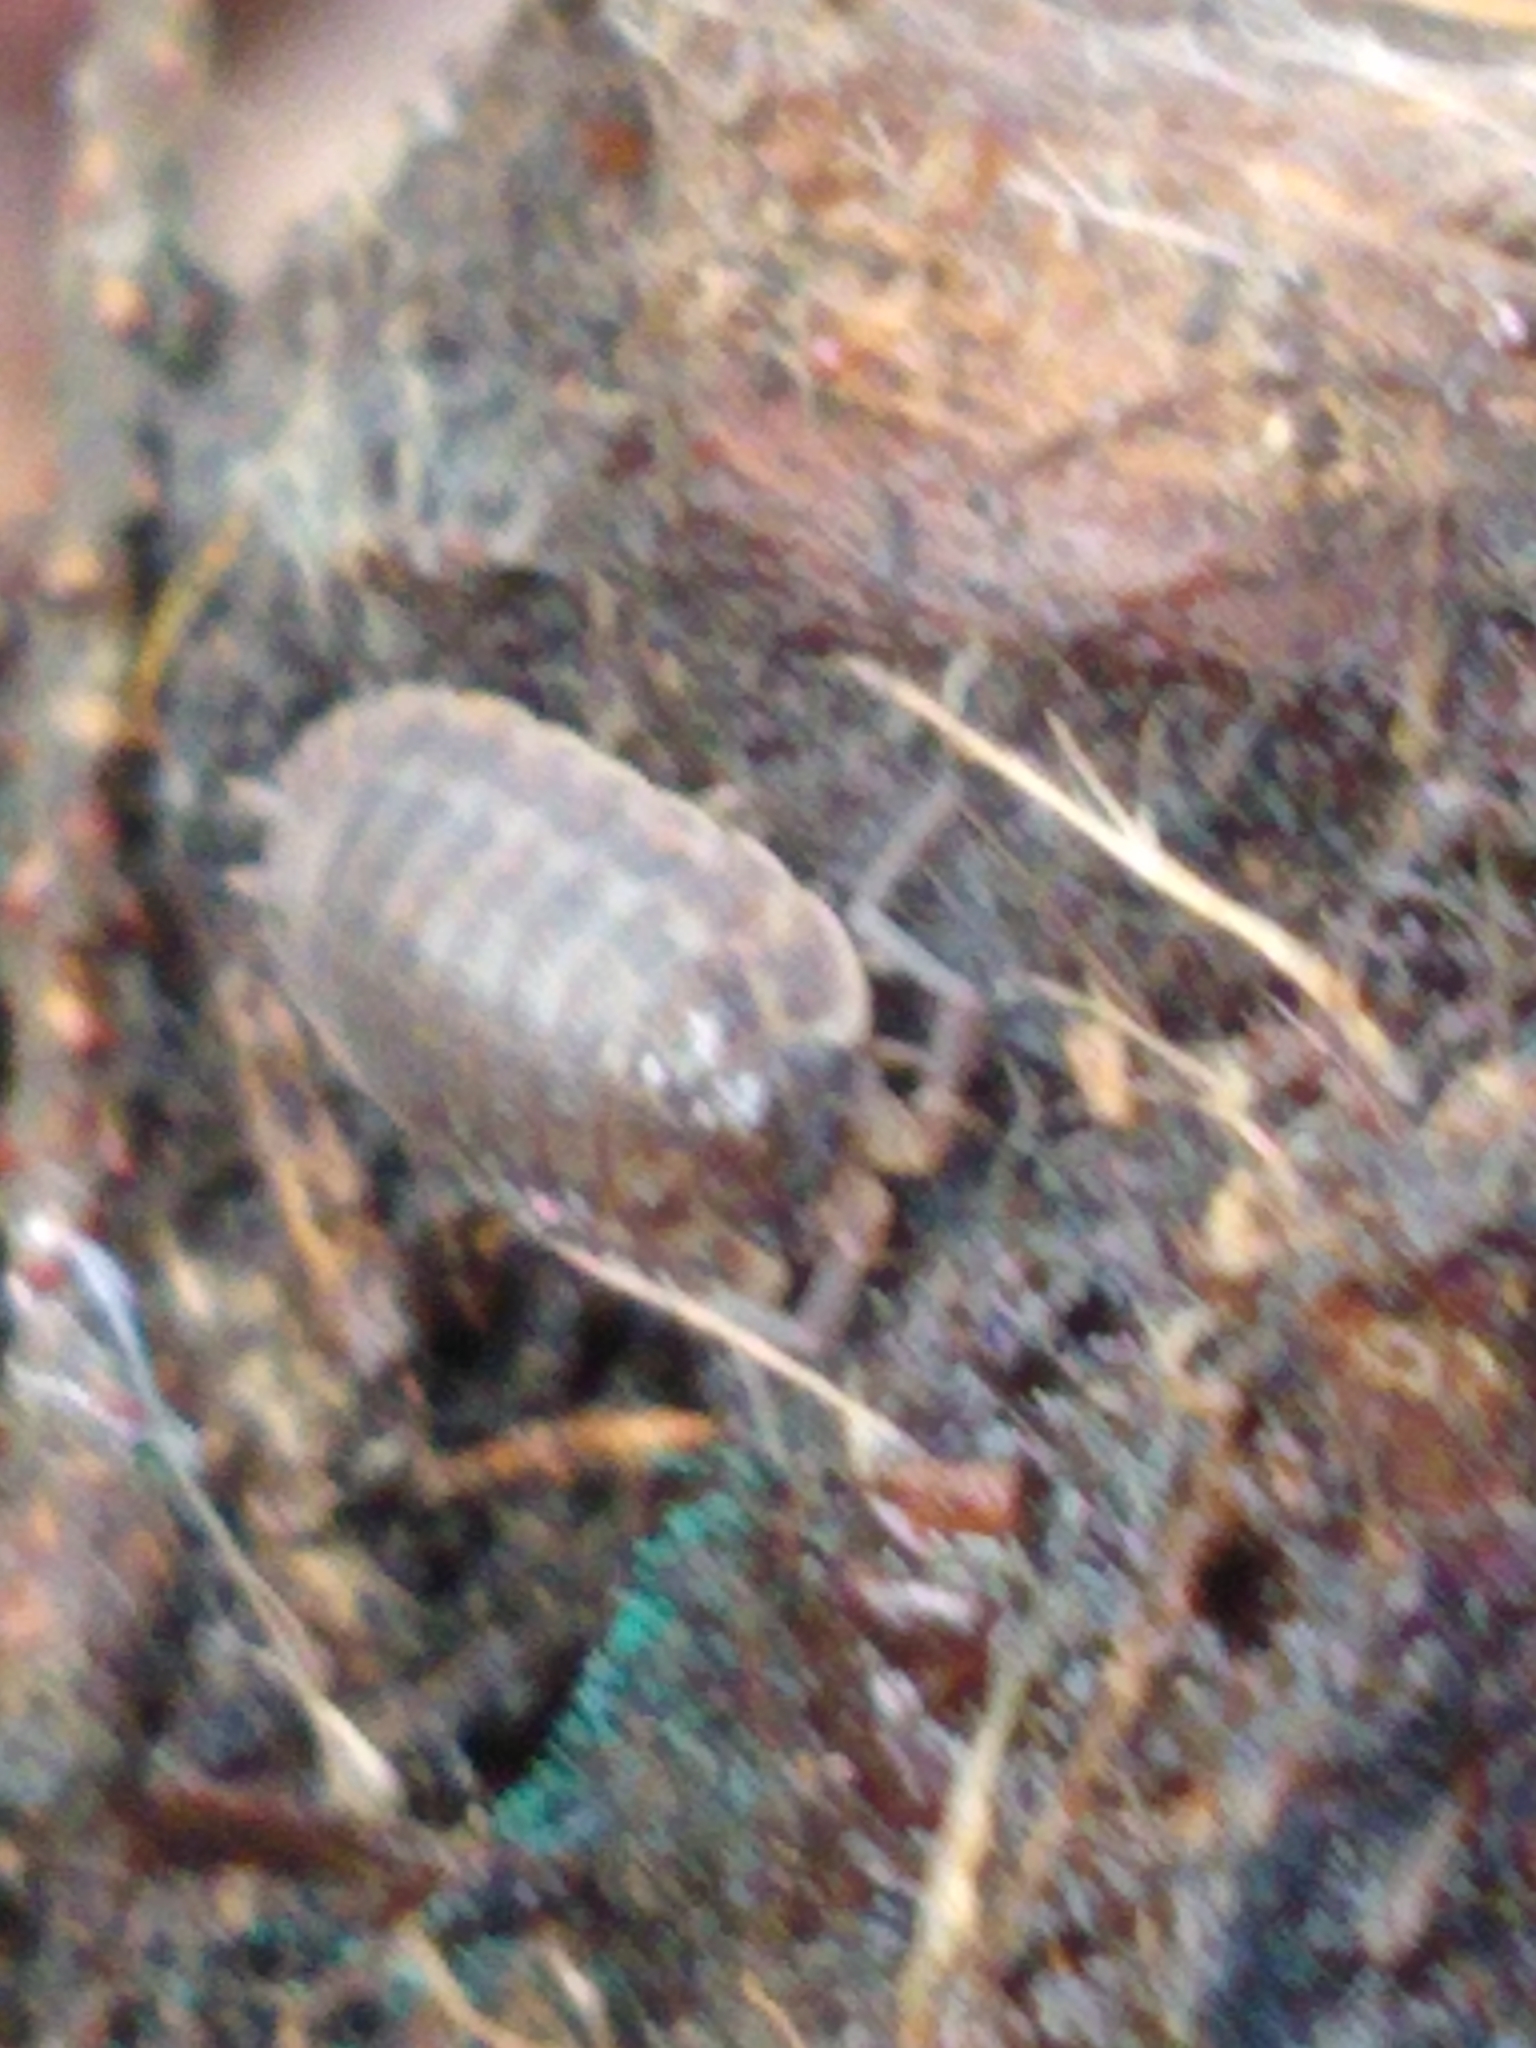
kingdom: Animalia
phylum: Arthropoda
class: Malacostraca
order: Isopoda
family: Trachelipodidae
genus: Trachelipus
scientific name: Trachelipus rathkii
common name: Isopod
